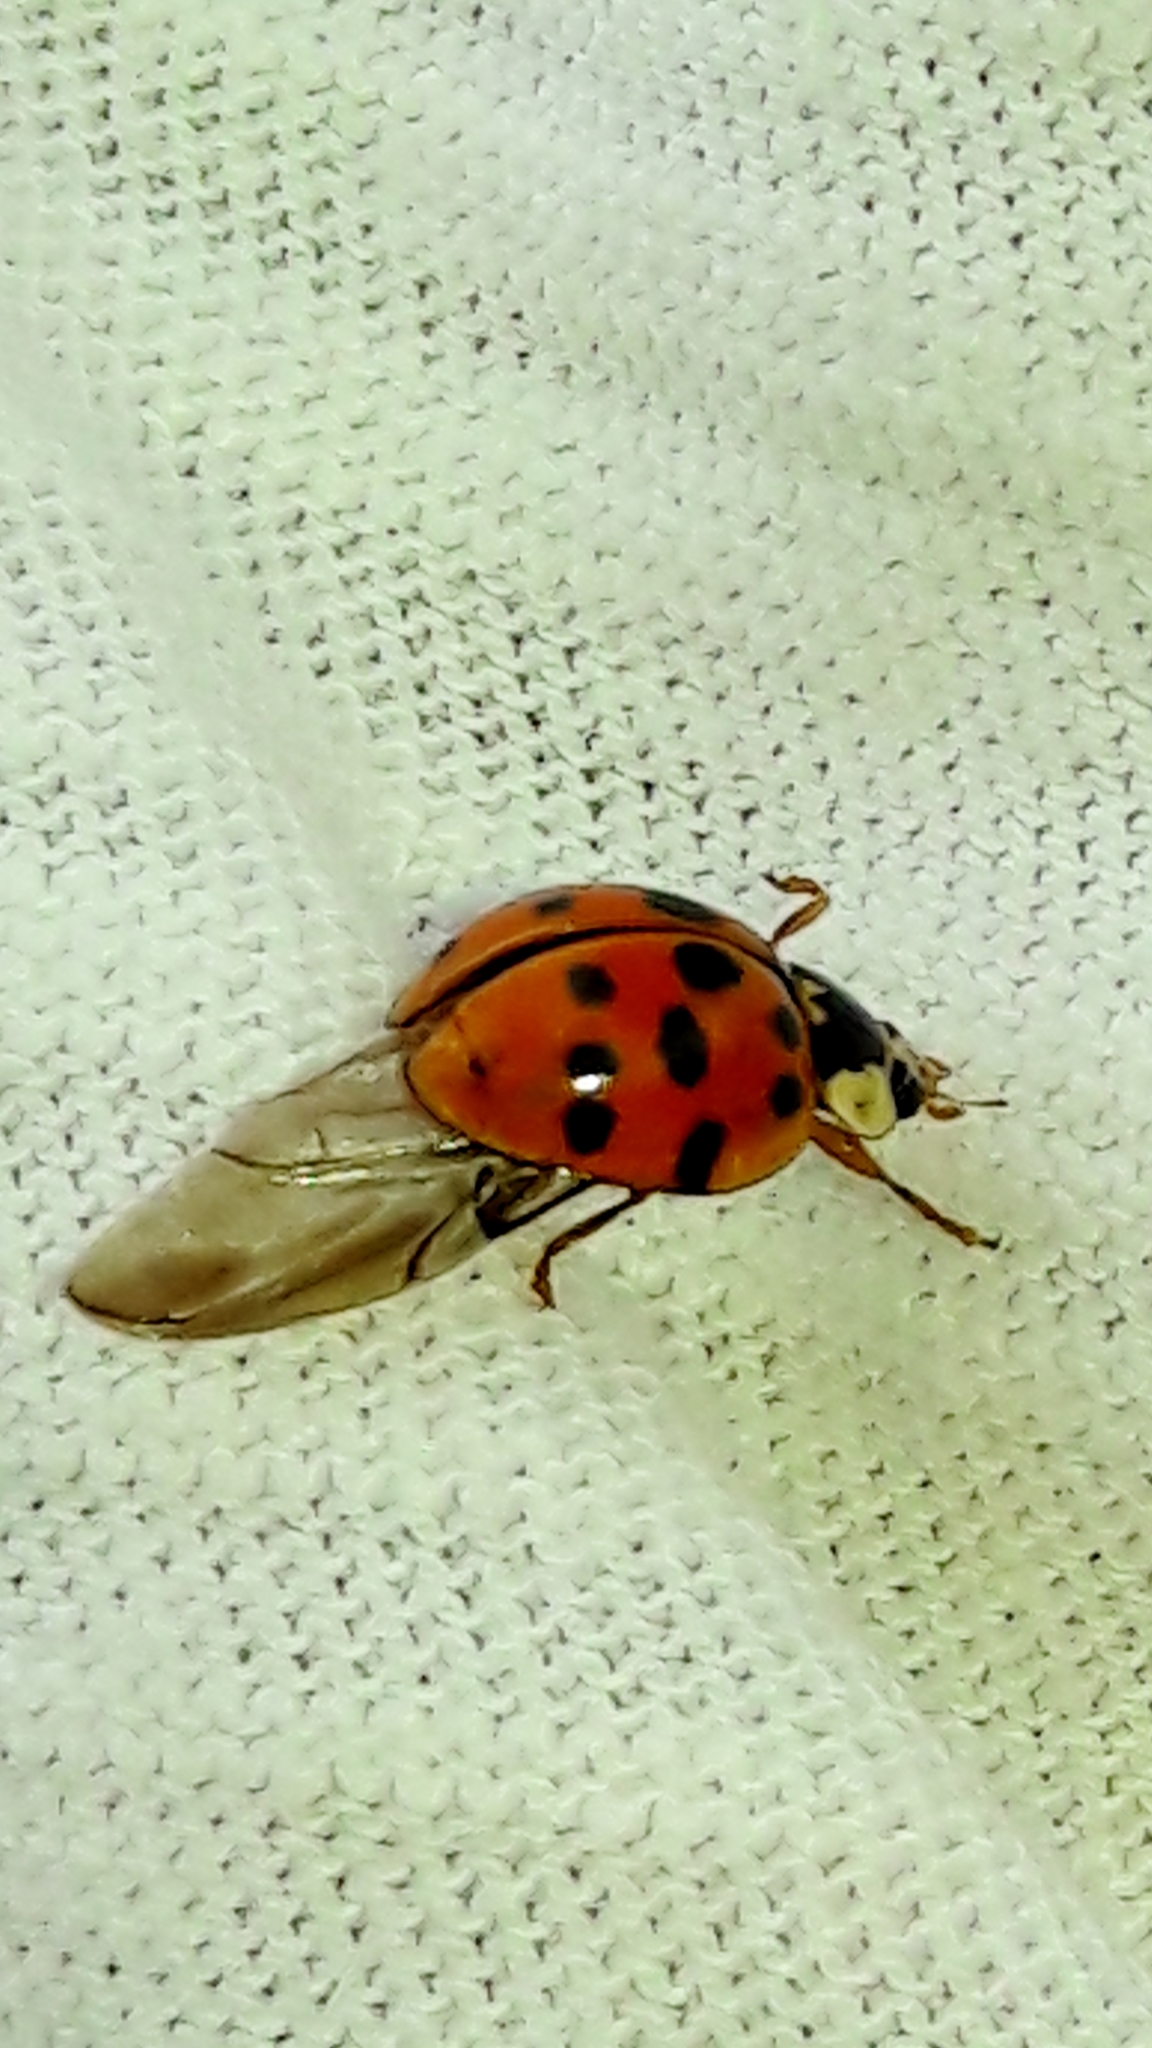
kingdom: Animalia
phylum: Arthropoda
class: Insecta
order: Coleoptera
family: Coccinellidae
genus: Harmonia
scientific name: Harmonia axyridis
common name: Harlequin ladybird
